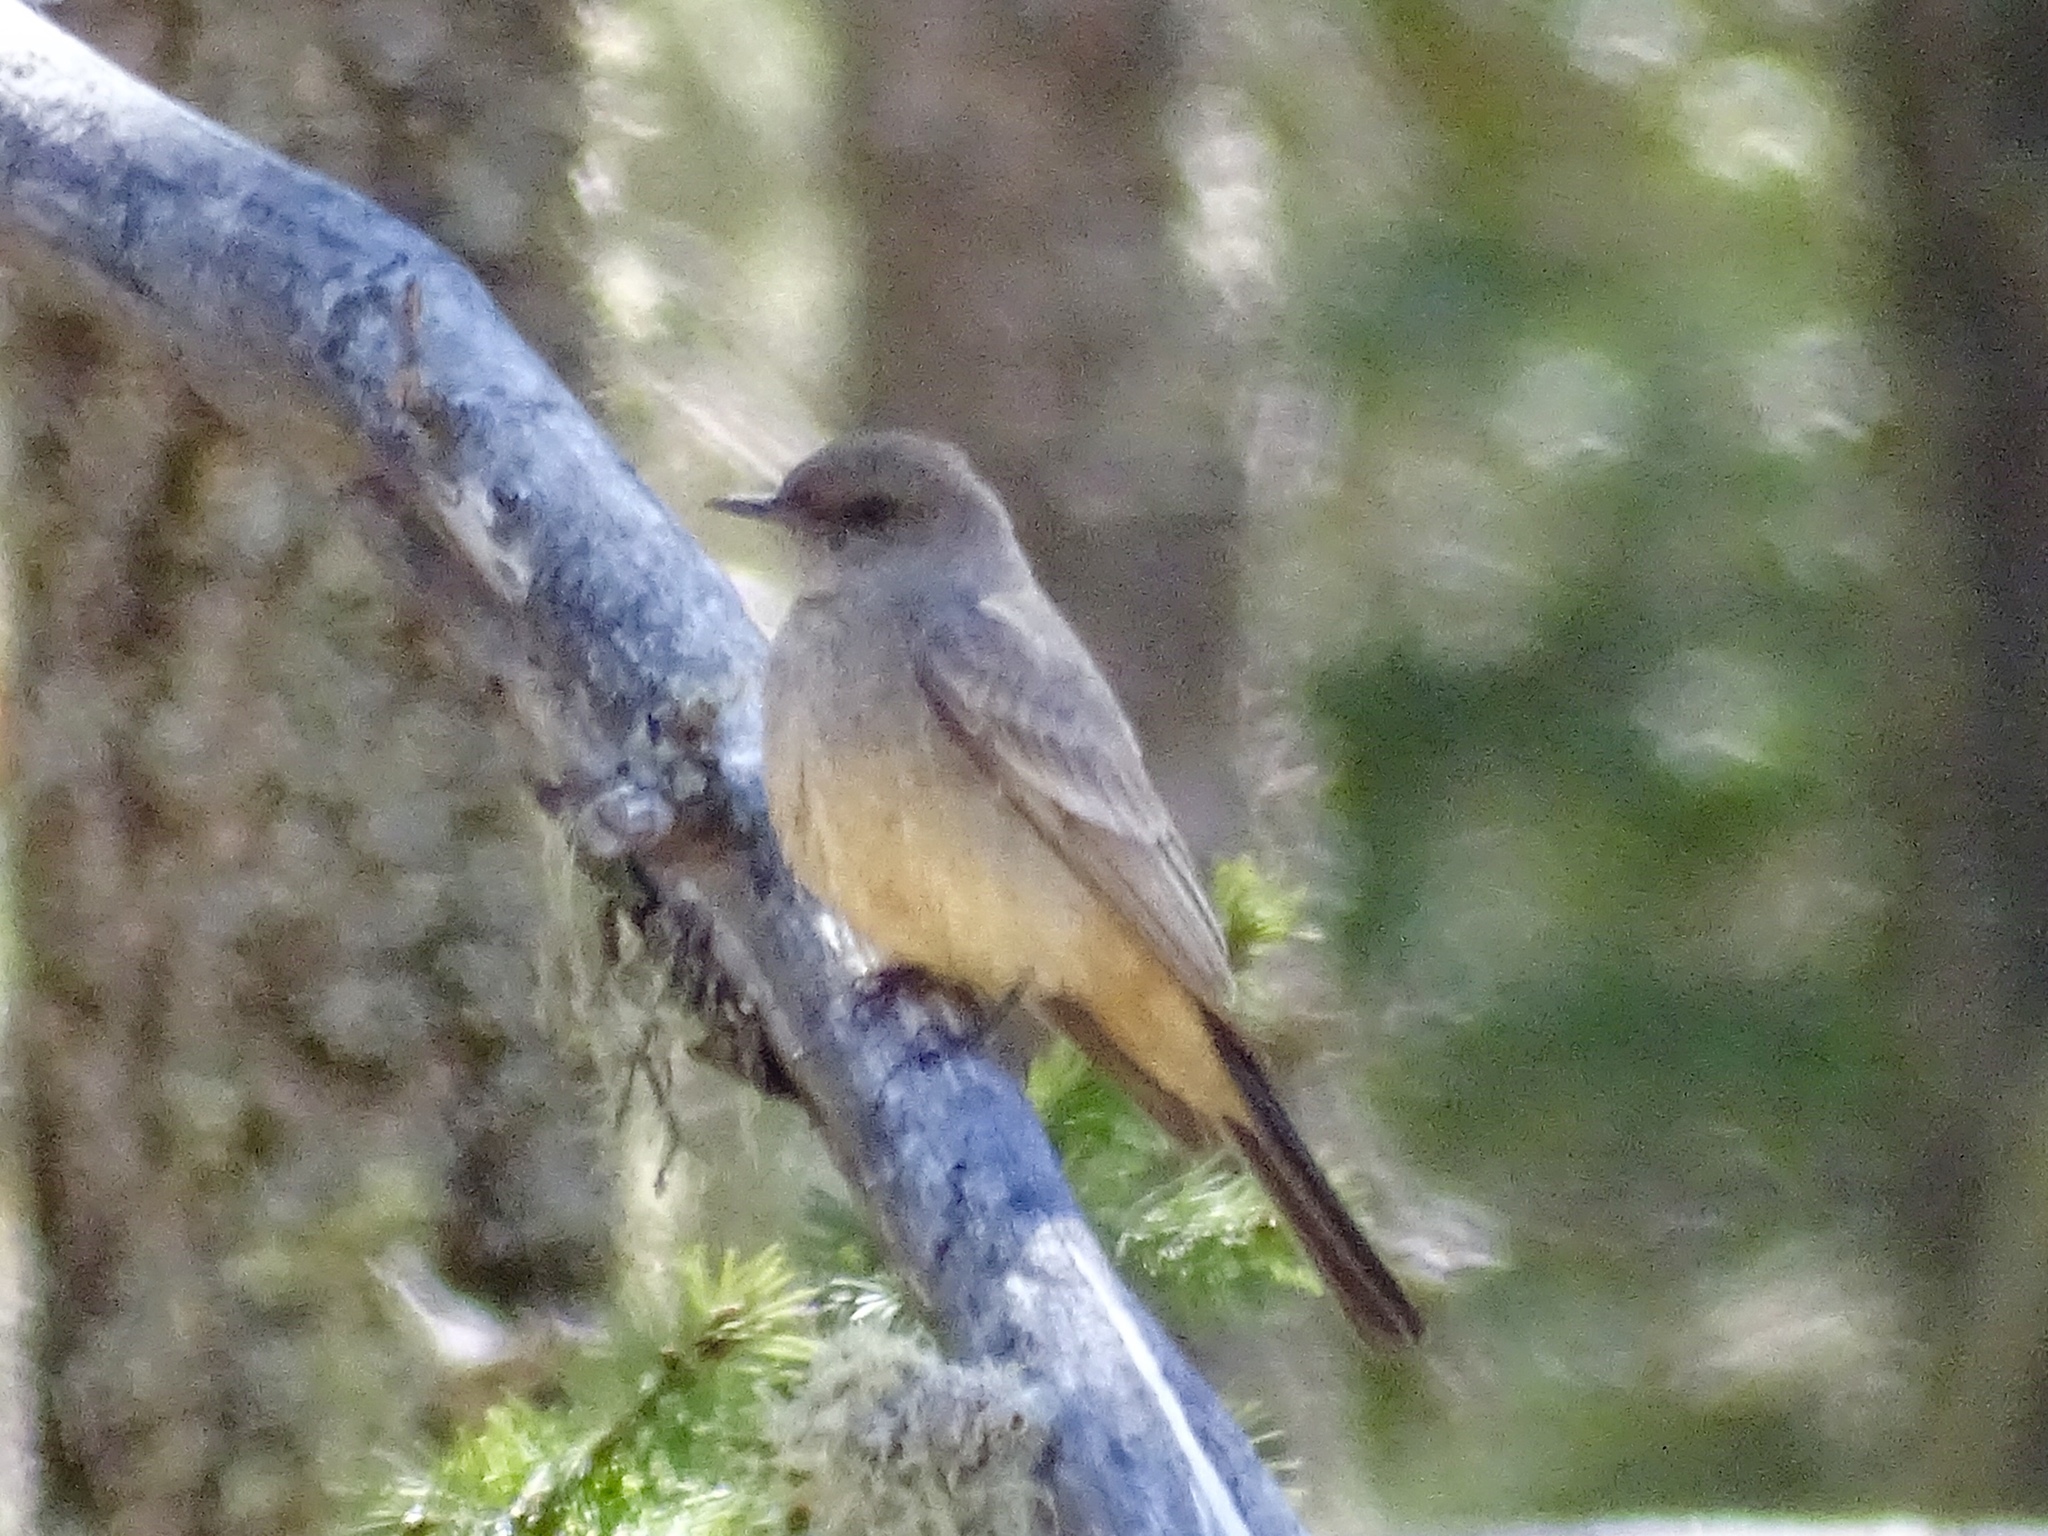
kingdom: Animalia
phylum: Chordata
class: Aves
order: Passeriformes
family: Tyrannidae
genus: Sayornis
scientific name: Sayornis saya
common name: Say's phoebe
